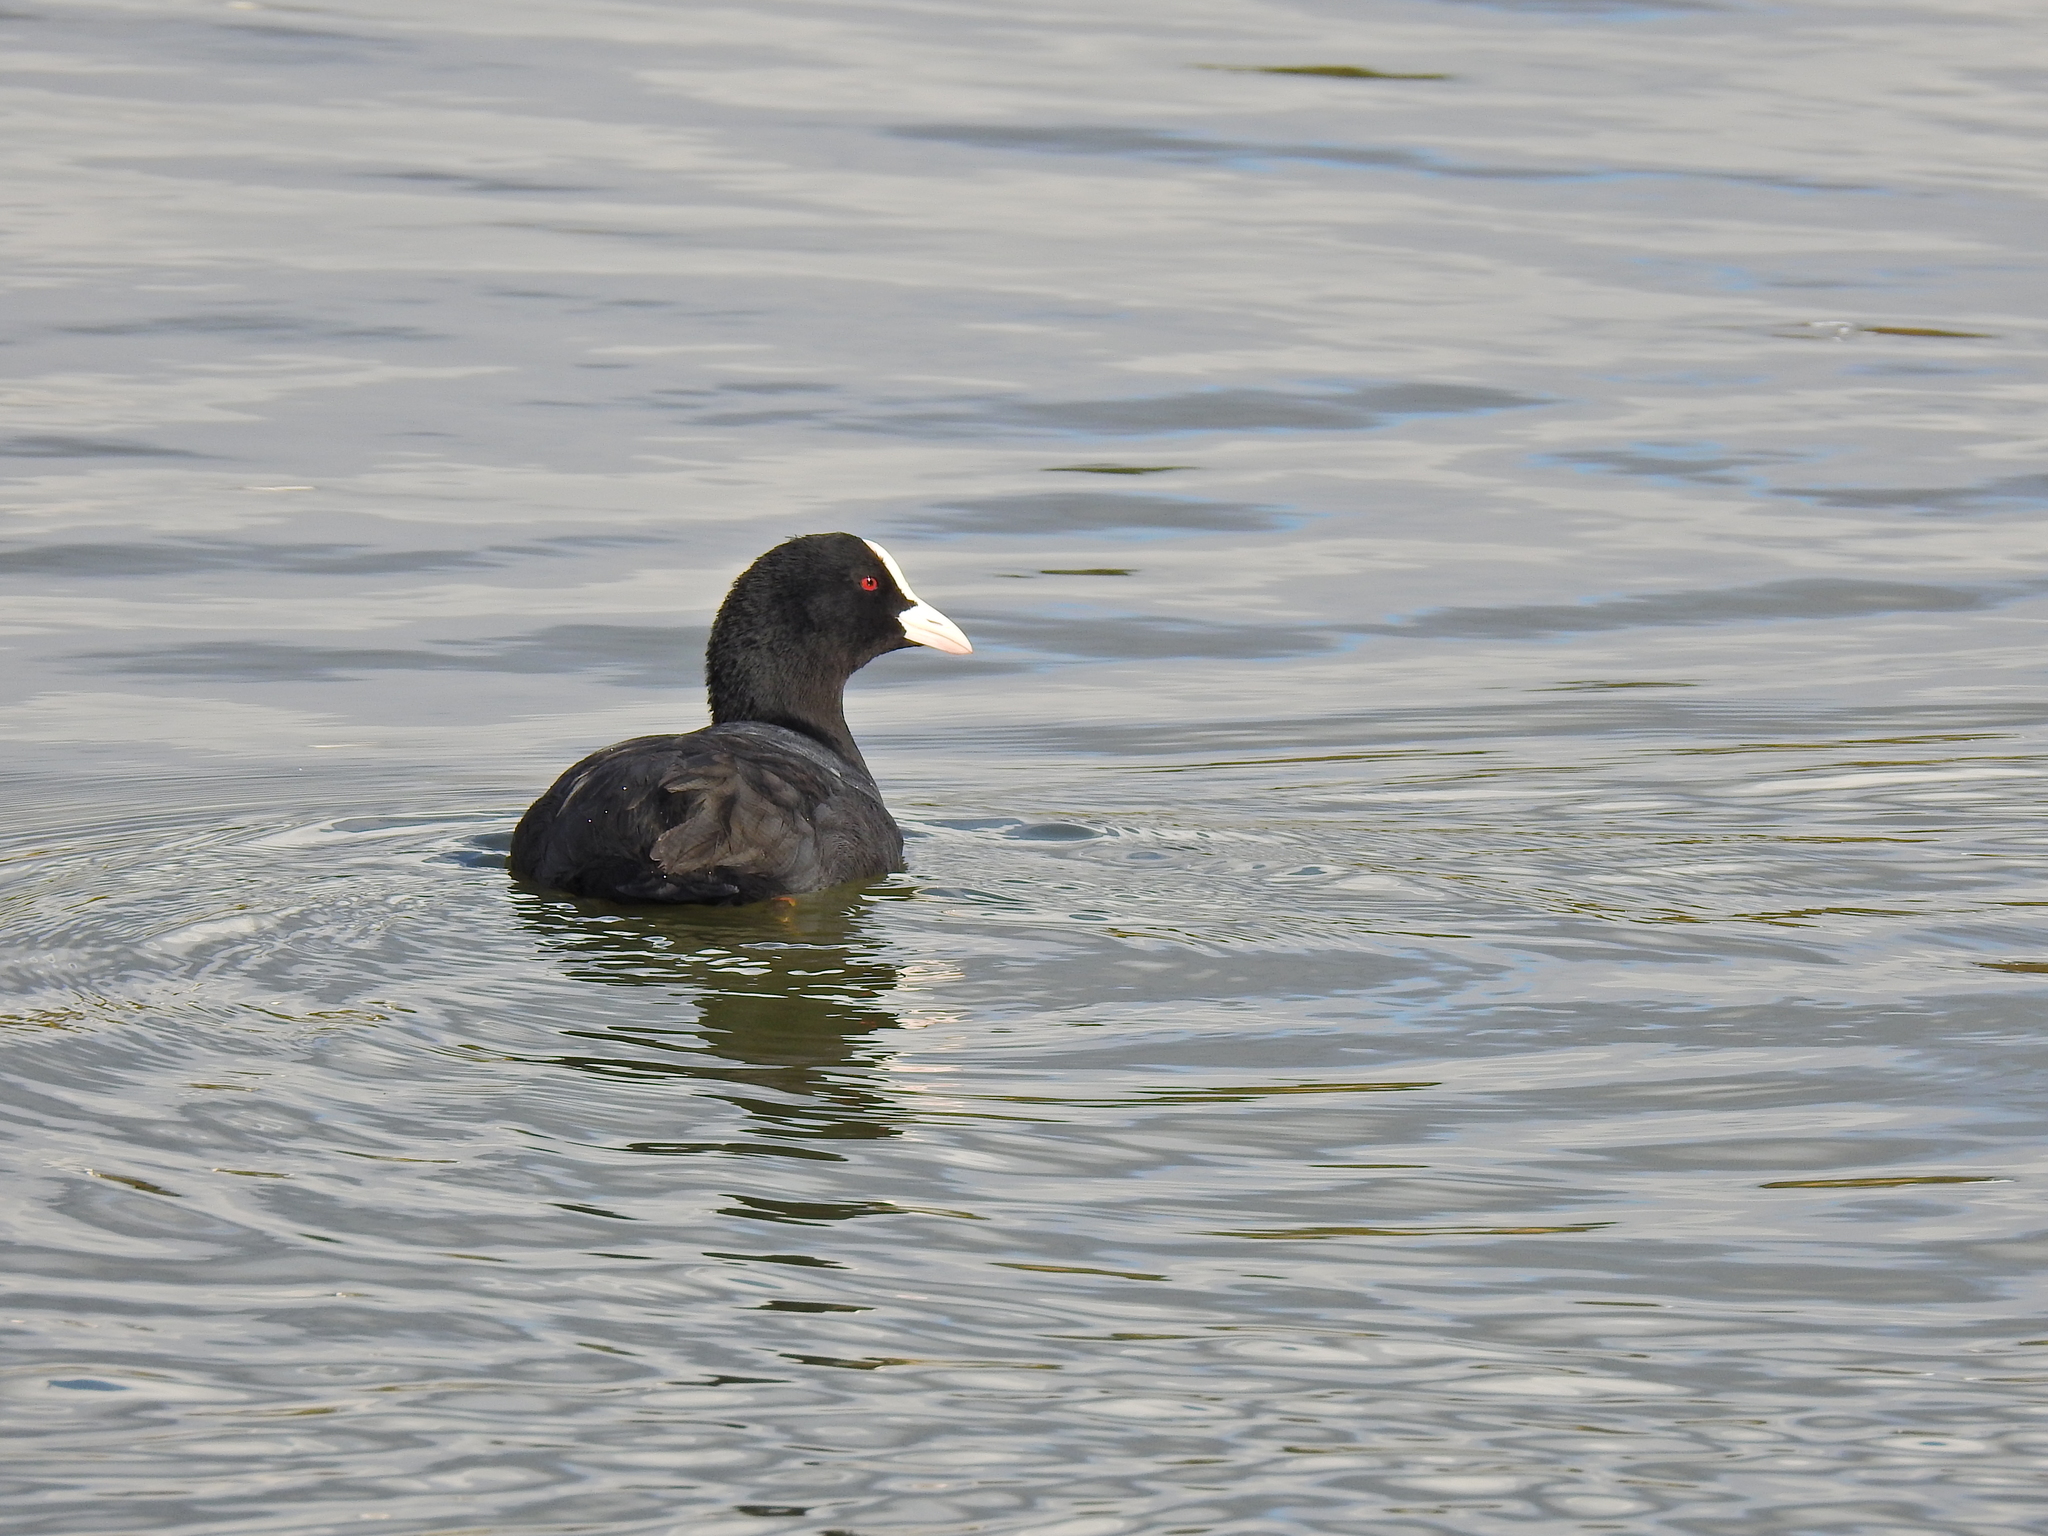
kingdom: Animalia
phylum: Chordata
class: Aves
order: Gruiformes
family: Rallidae
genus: Fulica
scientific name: Fulica atra
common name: Eurasian coot
